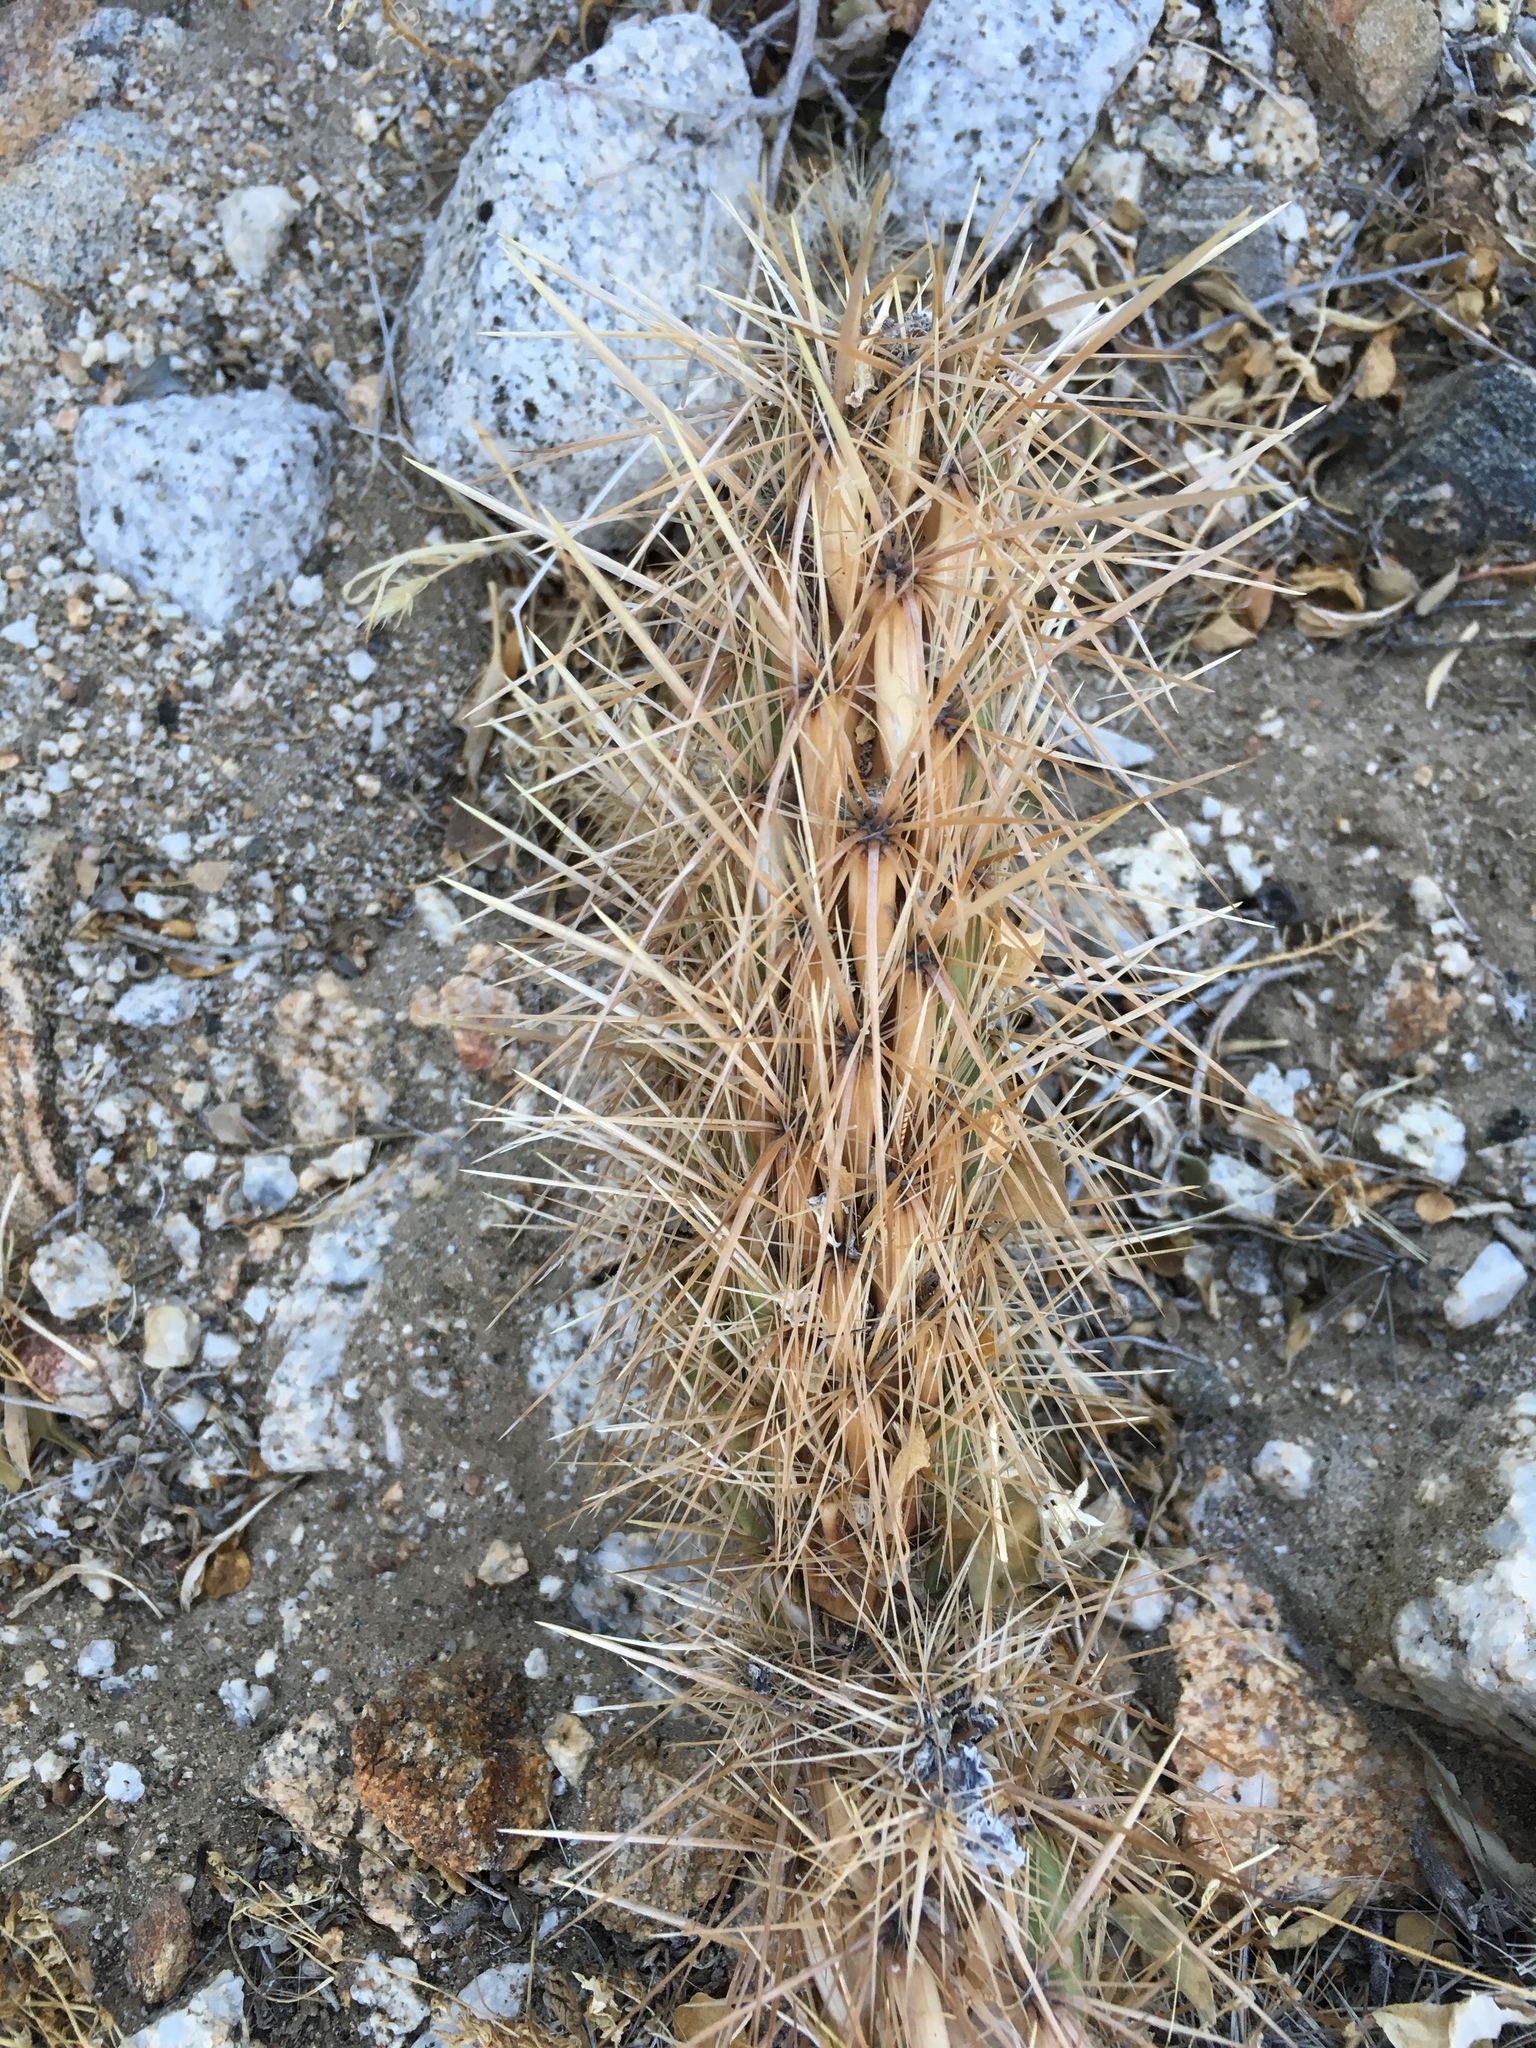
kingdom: Plantae
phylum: Tracheophyta
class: Magnoliopsida
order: Caryophyllales
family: Cactaceae
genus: Cylindropuntia
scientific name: Cylindropuntia ganderi
